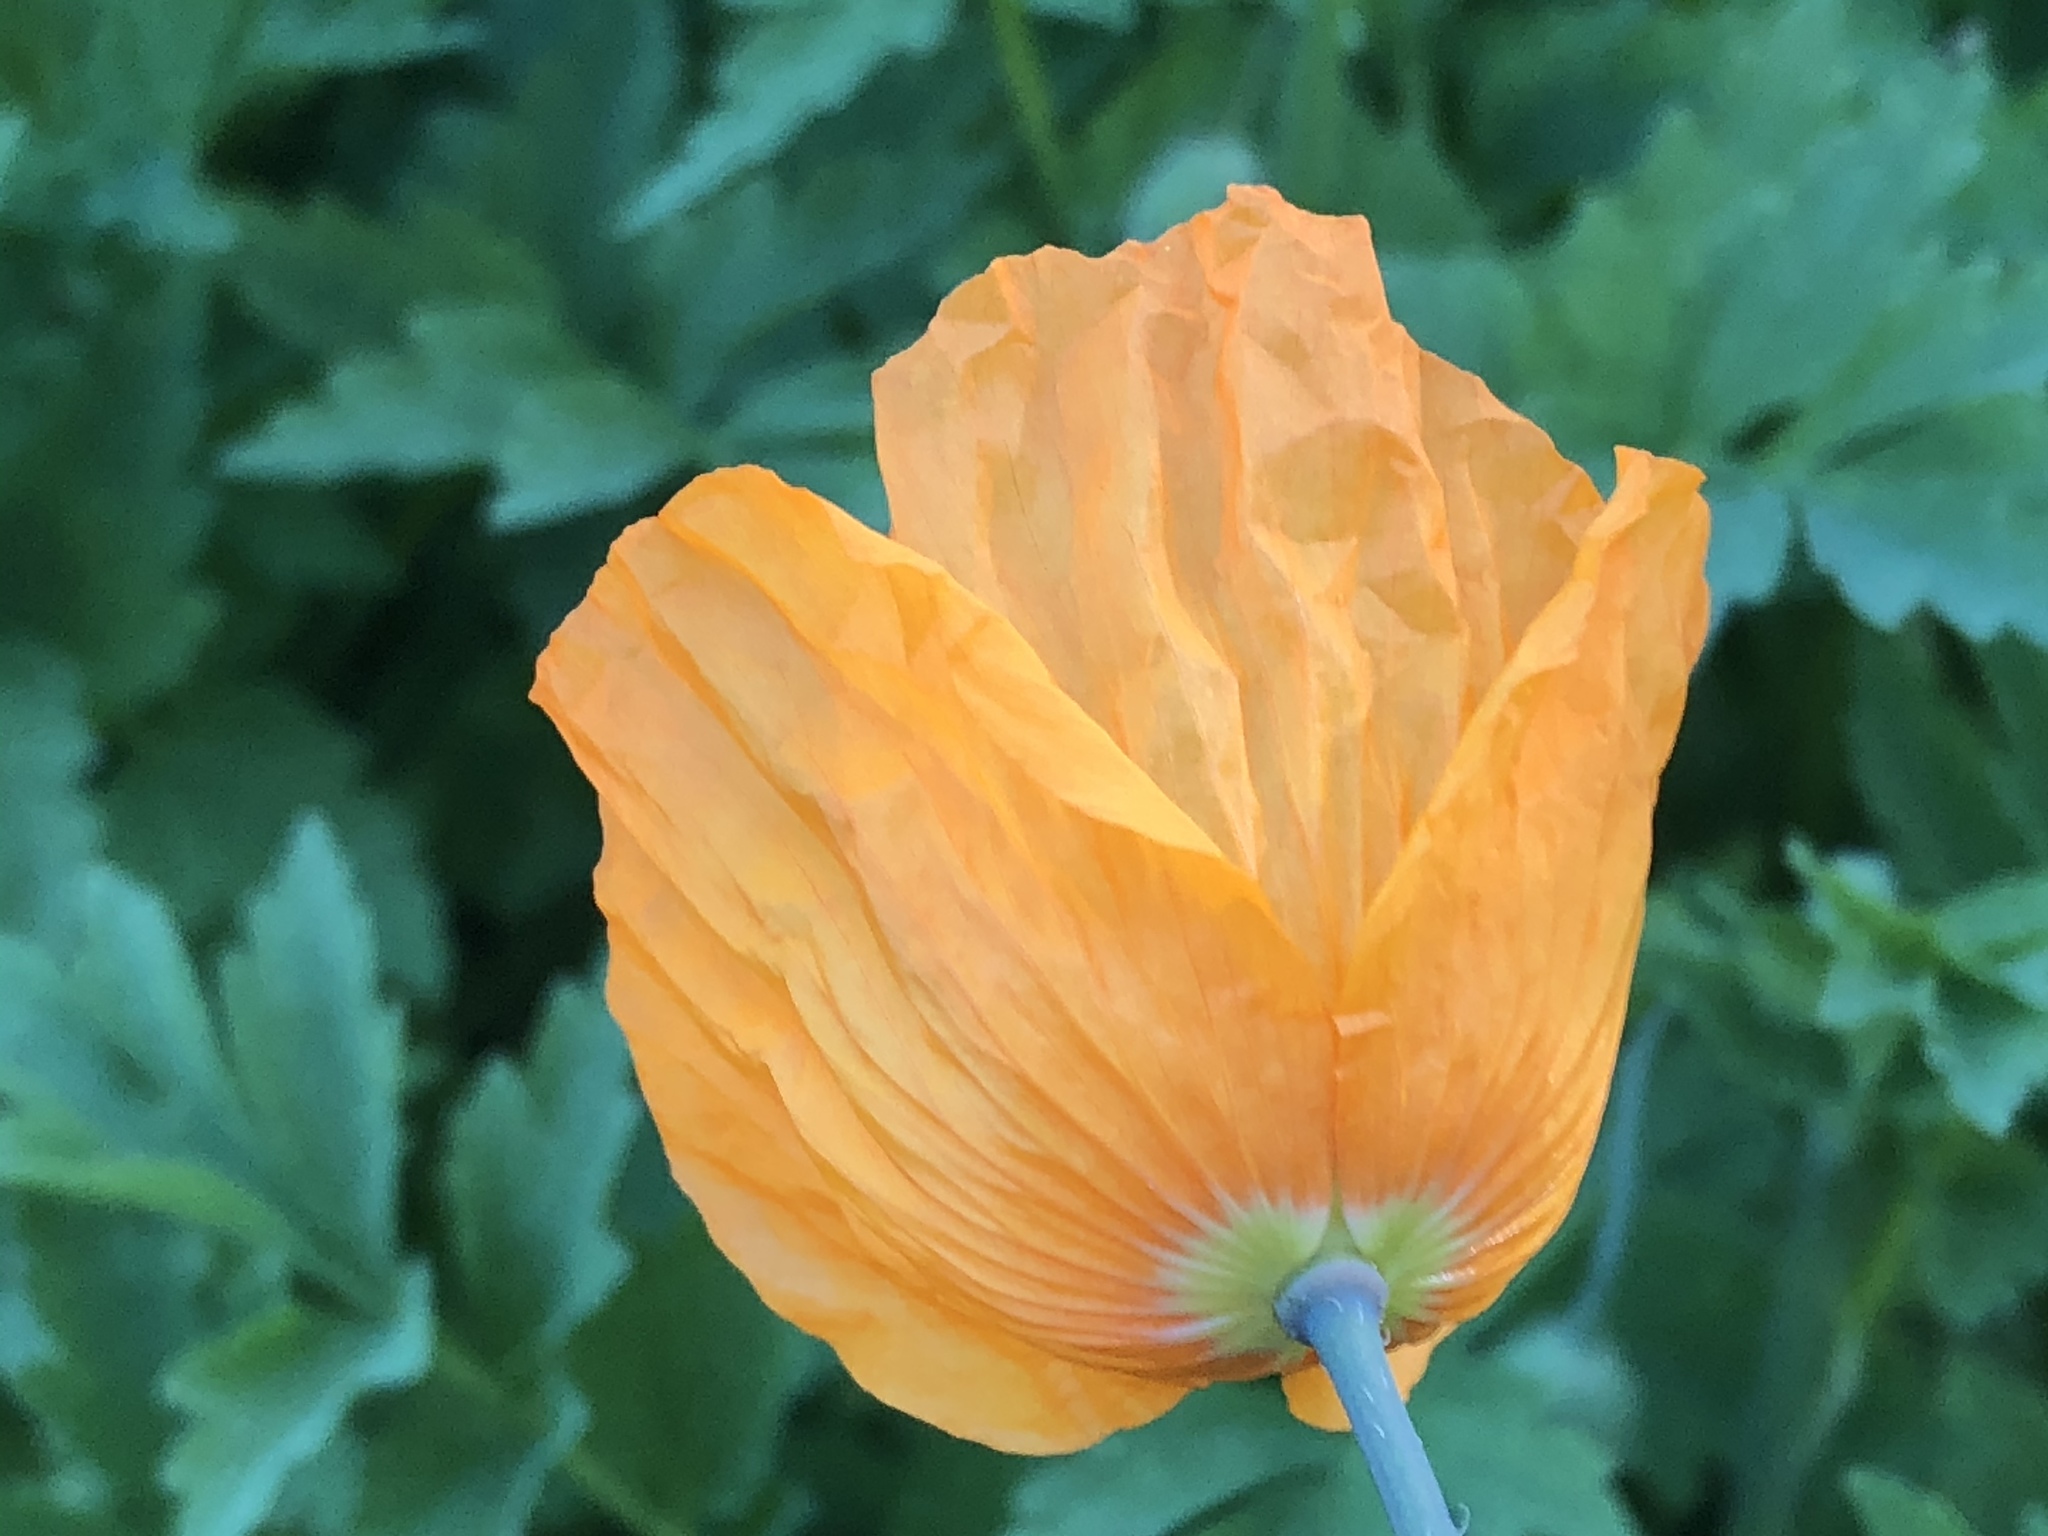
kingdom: Plantae
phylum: Tracheophyta
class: Magnoliopsida
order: Ranunculales
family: Papaveraceae
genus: Papaver
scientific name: Papaver cambricum
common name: Poppy
